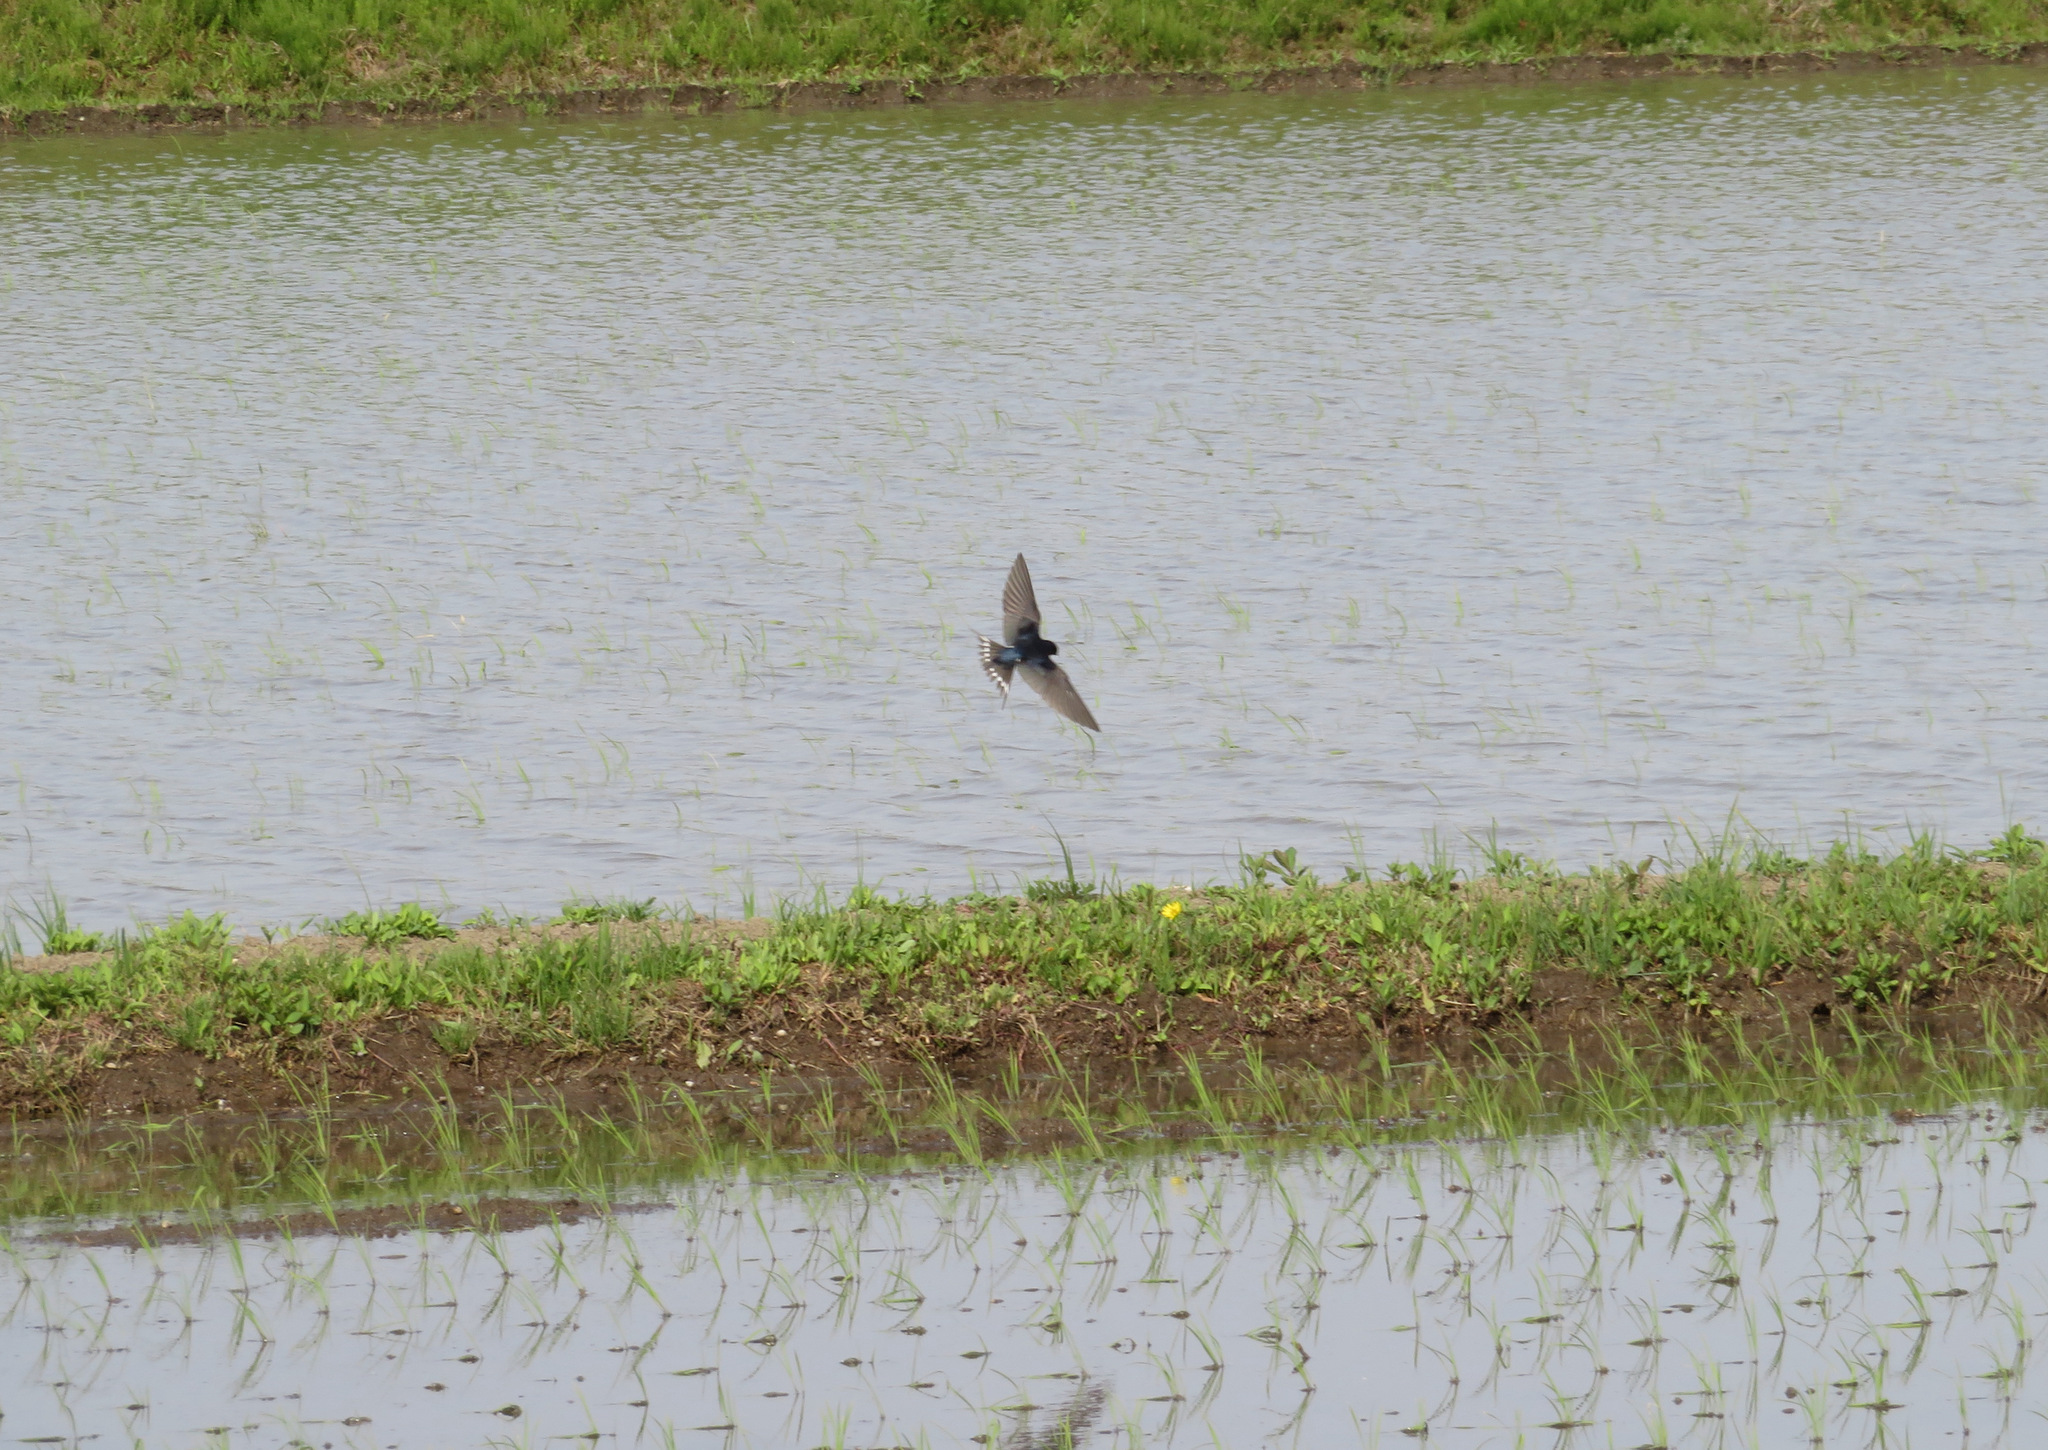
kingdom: Animalia
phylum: Chordata
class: Aves
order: Passeriformes
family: Hirundinidae
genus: Hirundo
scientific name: Hirundo rustica
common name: Barn swallow
